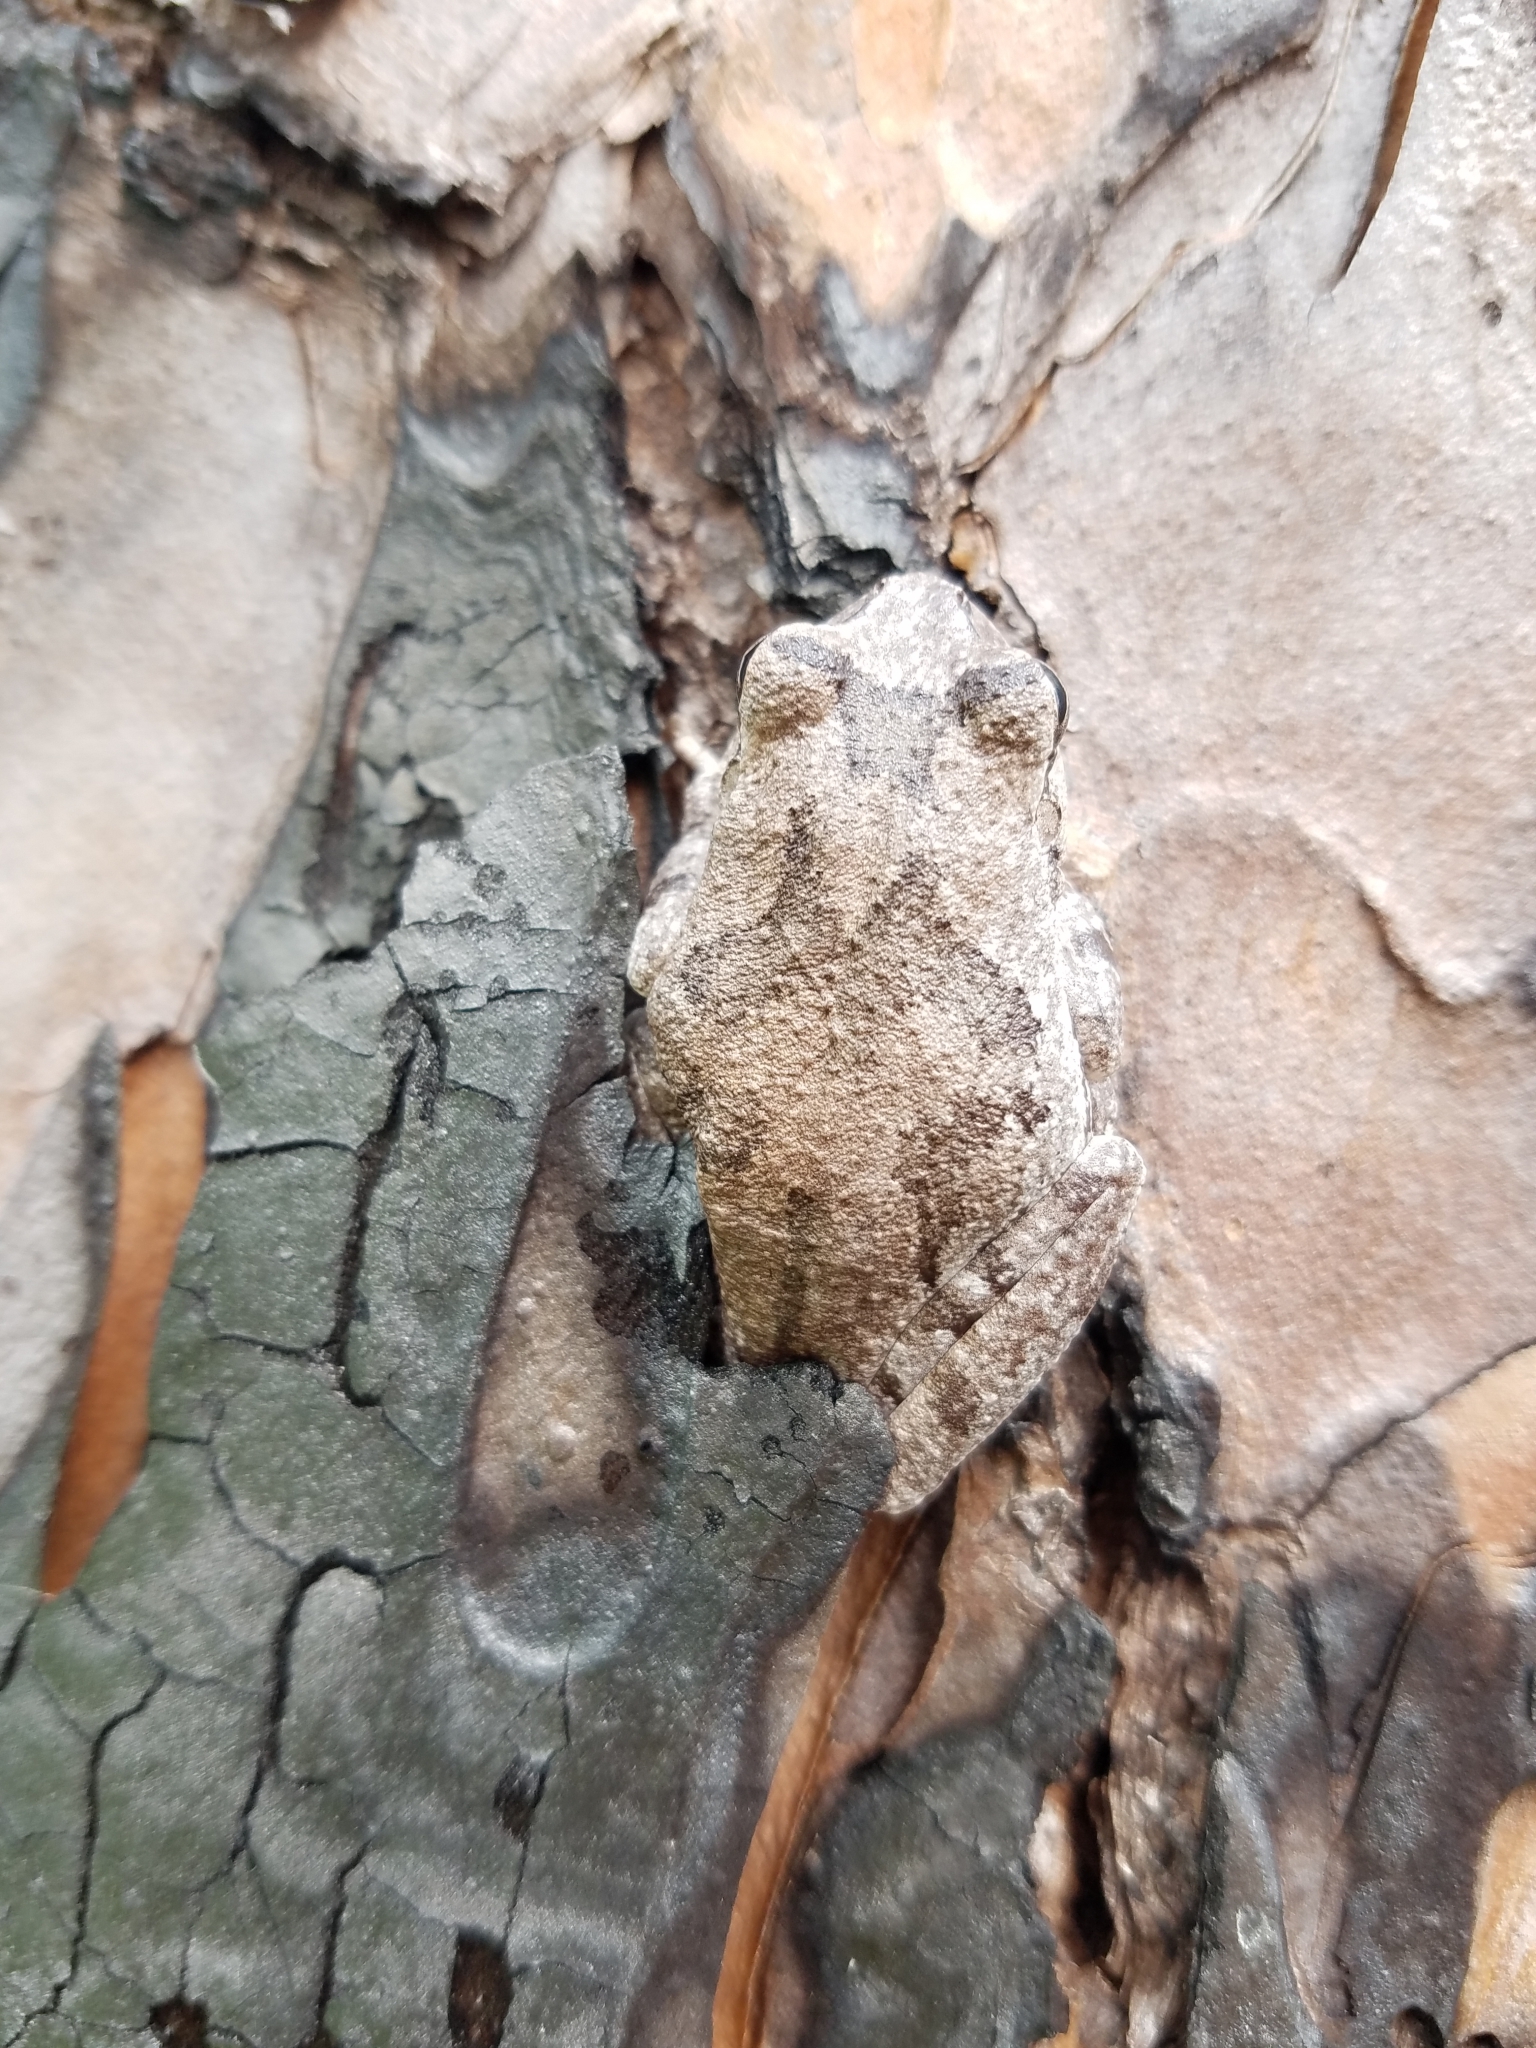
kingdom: Animalia
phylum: Chordata
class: Amphibia
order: Anura
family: Hylidae
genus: Hyla
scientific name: Hyla femoralis
